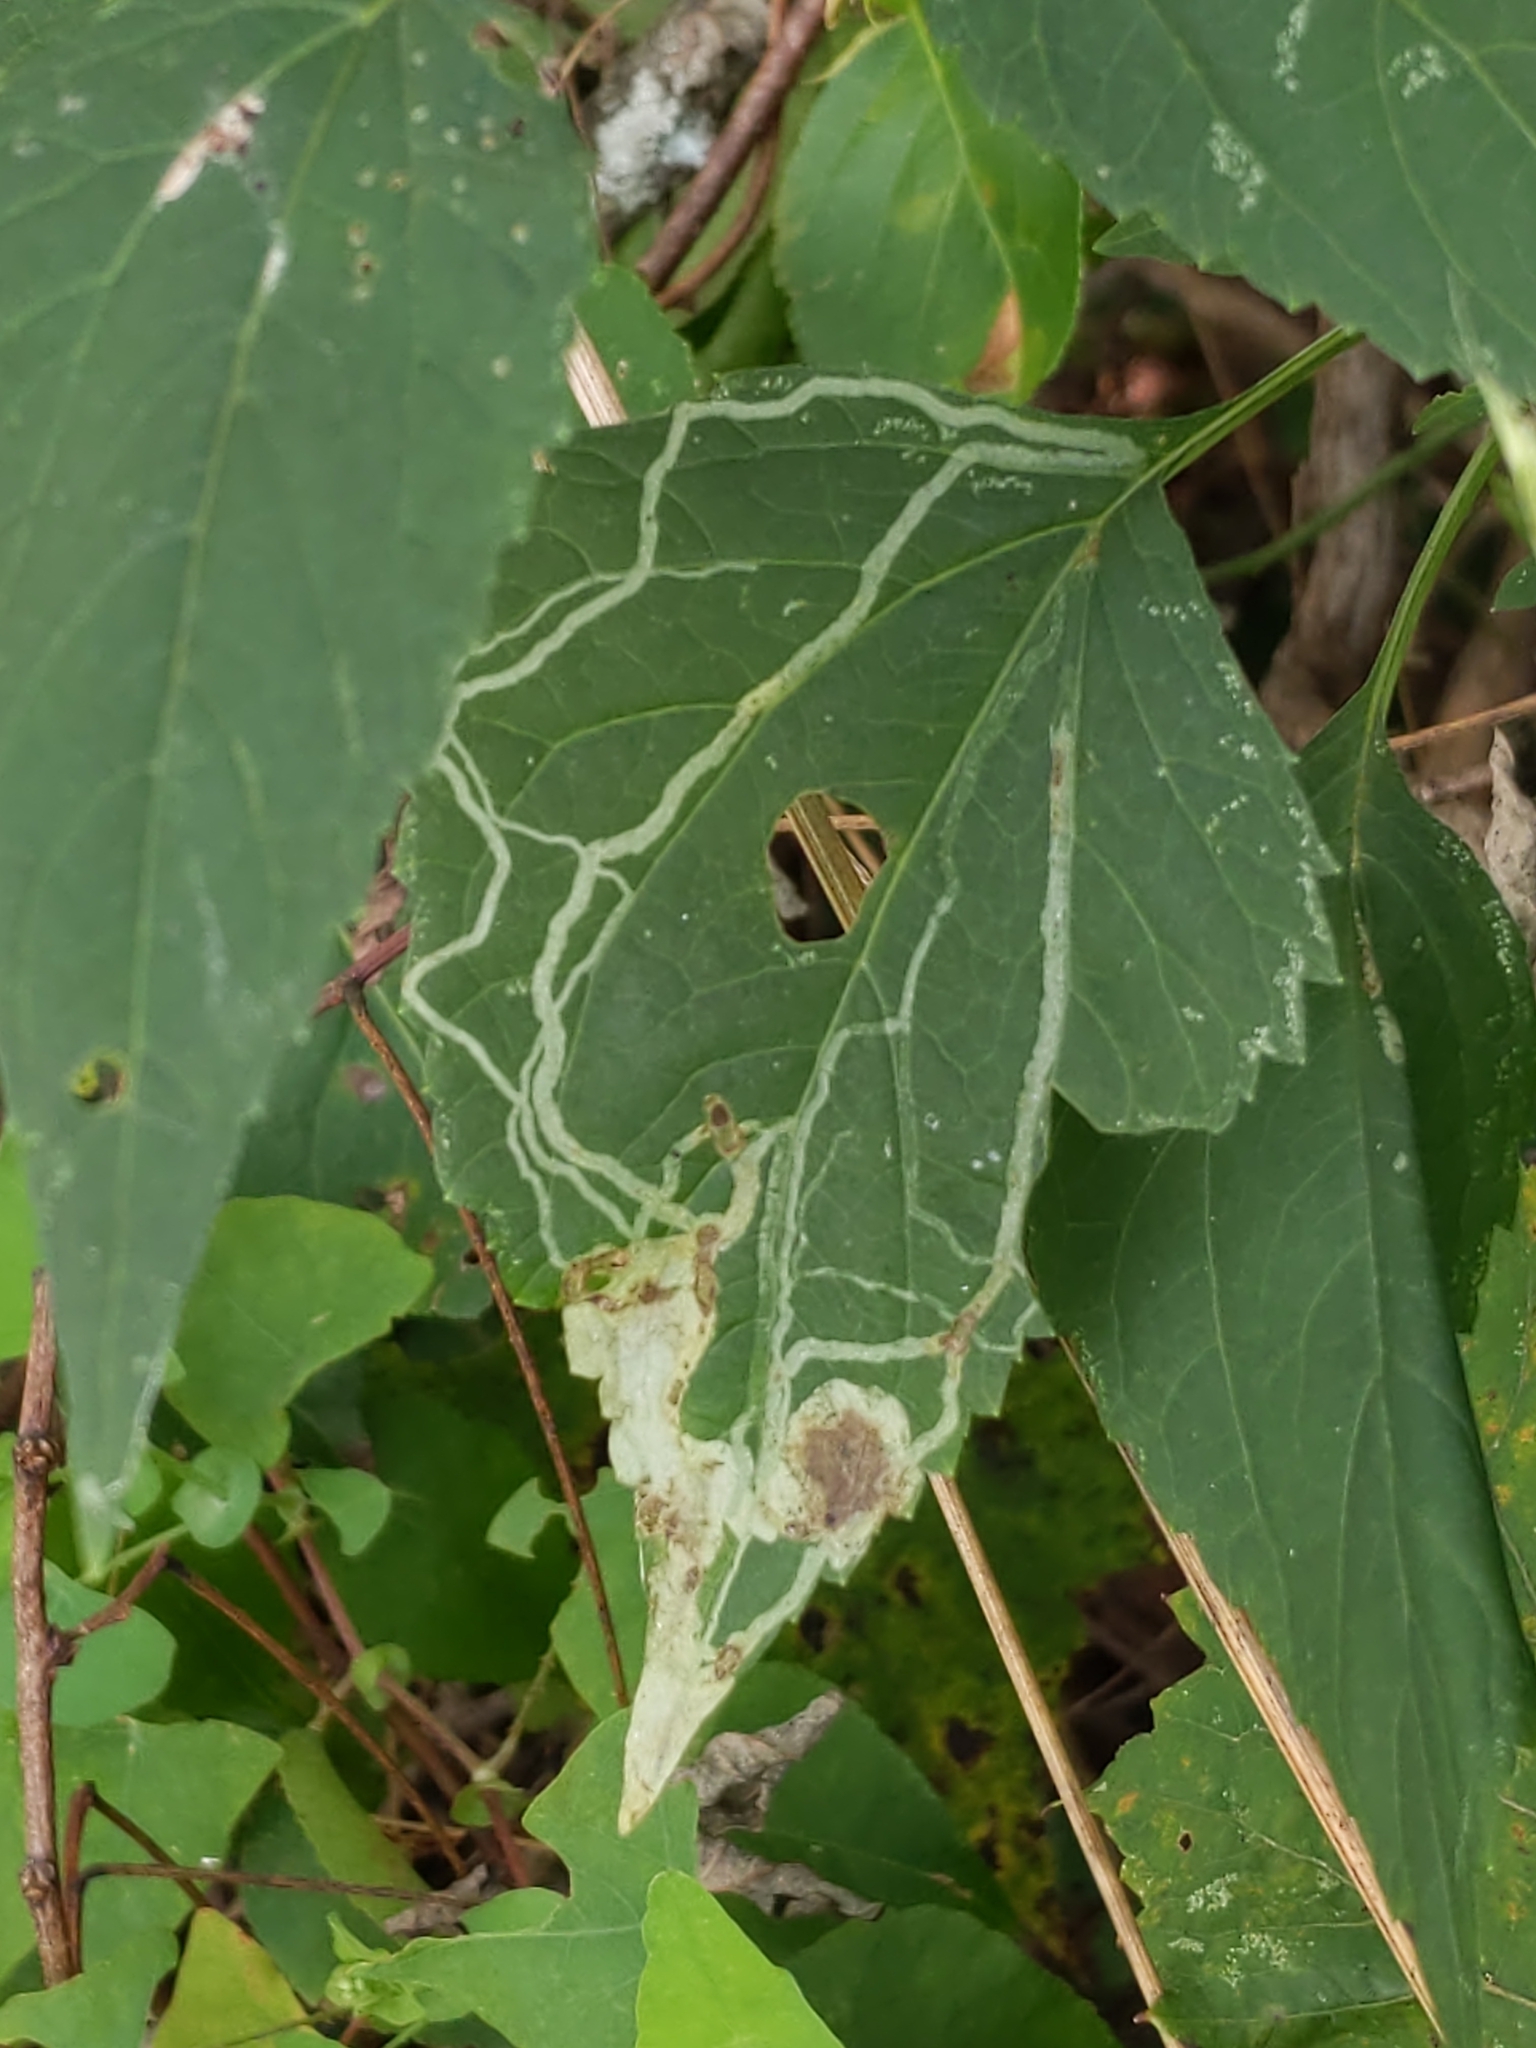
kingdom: Animalia
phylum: Arthropoda
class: Insecta
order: Diptera
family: Agromyzidae
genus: Liriomyza
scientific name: Liriomyza
